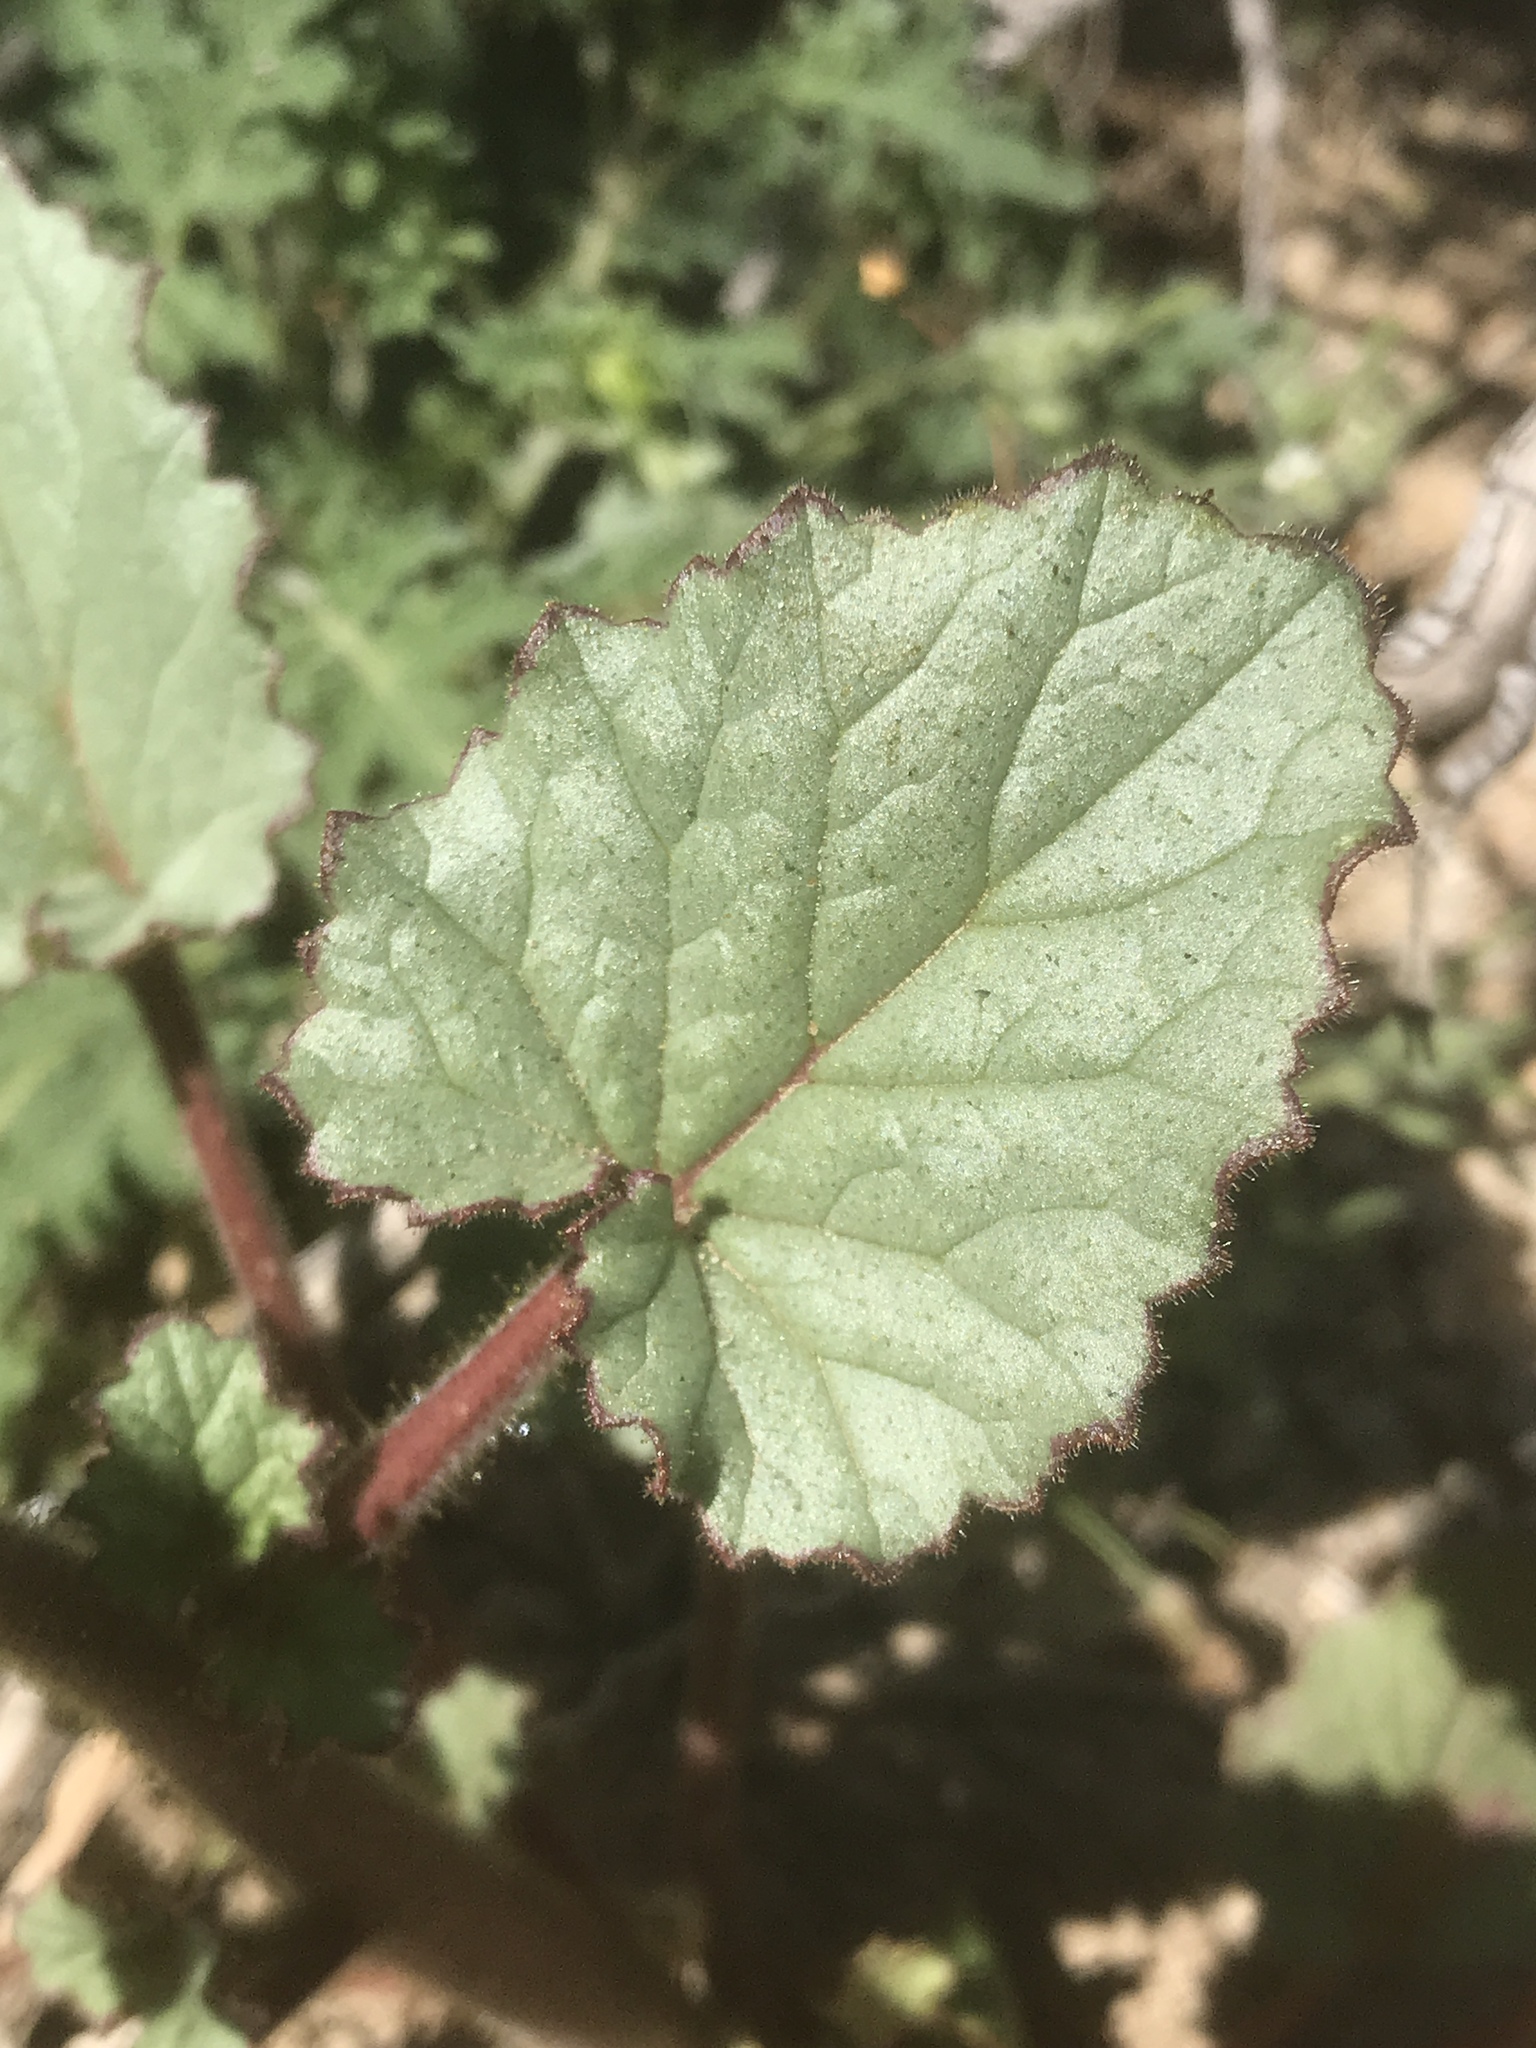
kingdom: Plantae
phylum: Tracheophyta
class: Magnoliopsida
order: Boraginales
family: Hydrophyllaceae
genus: Phacelia
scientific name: Phacelia campanularia
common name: California bluebell
